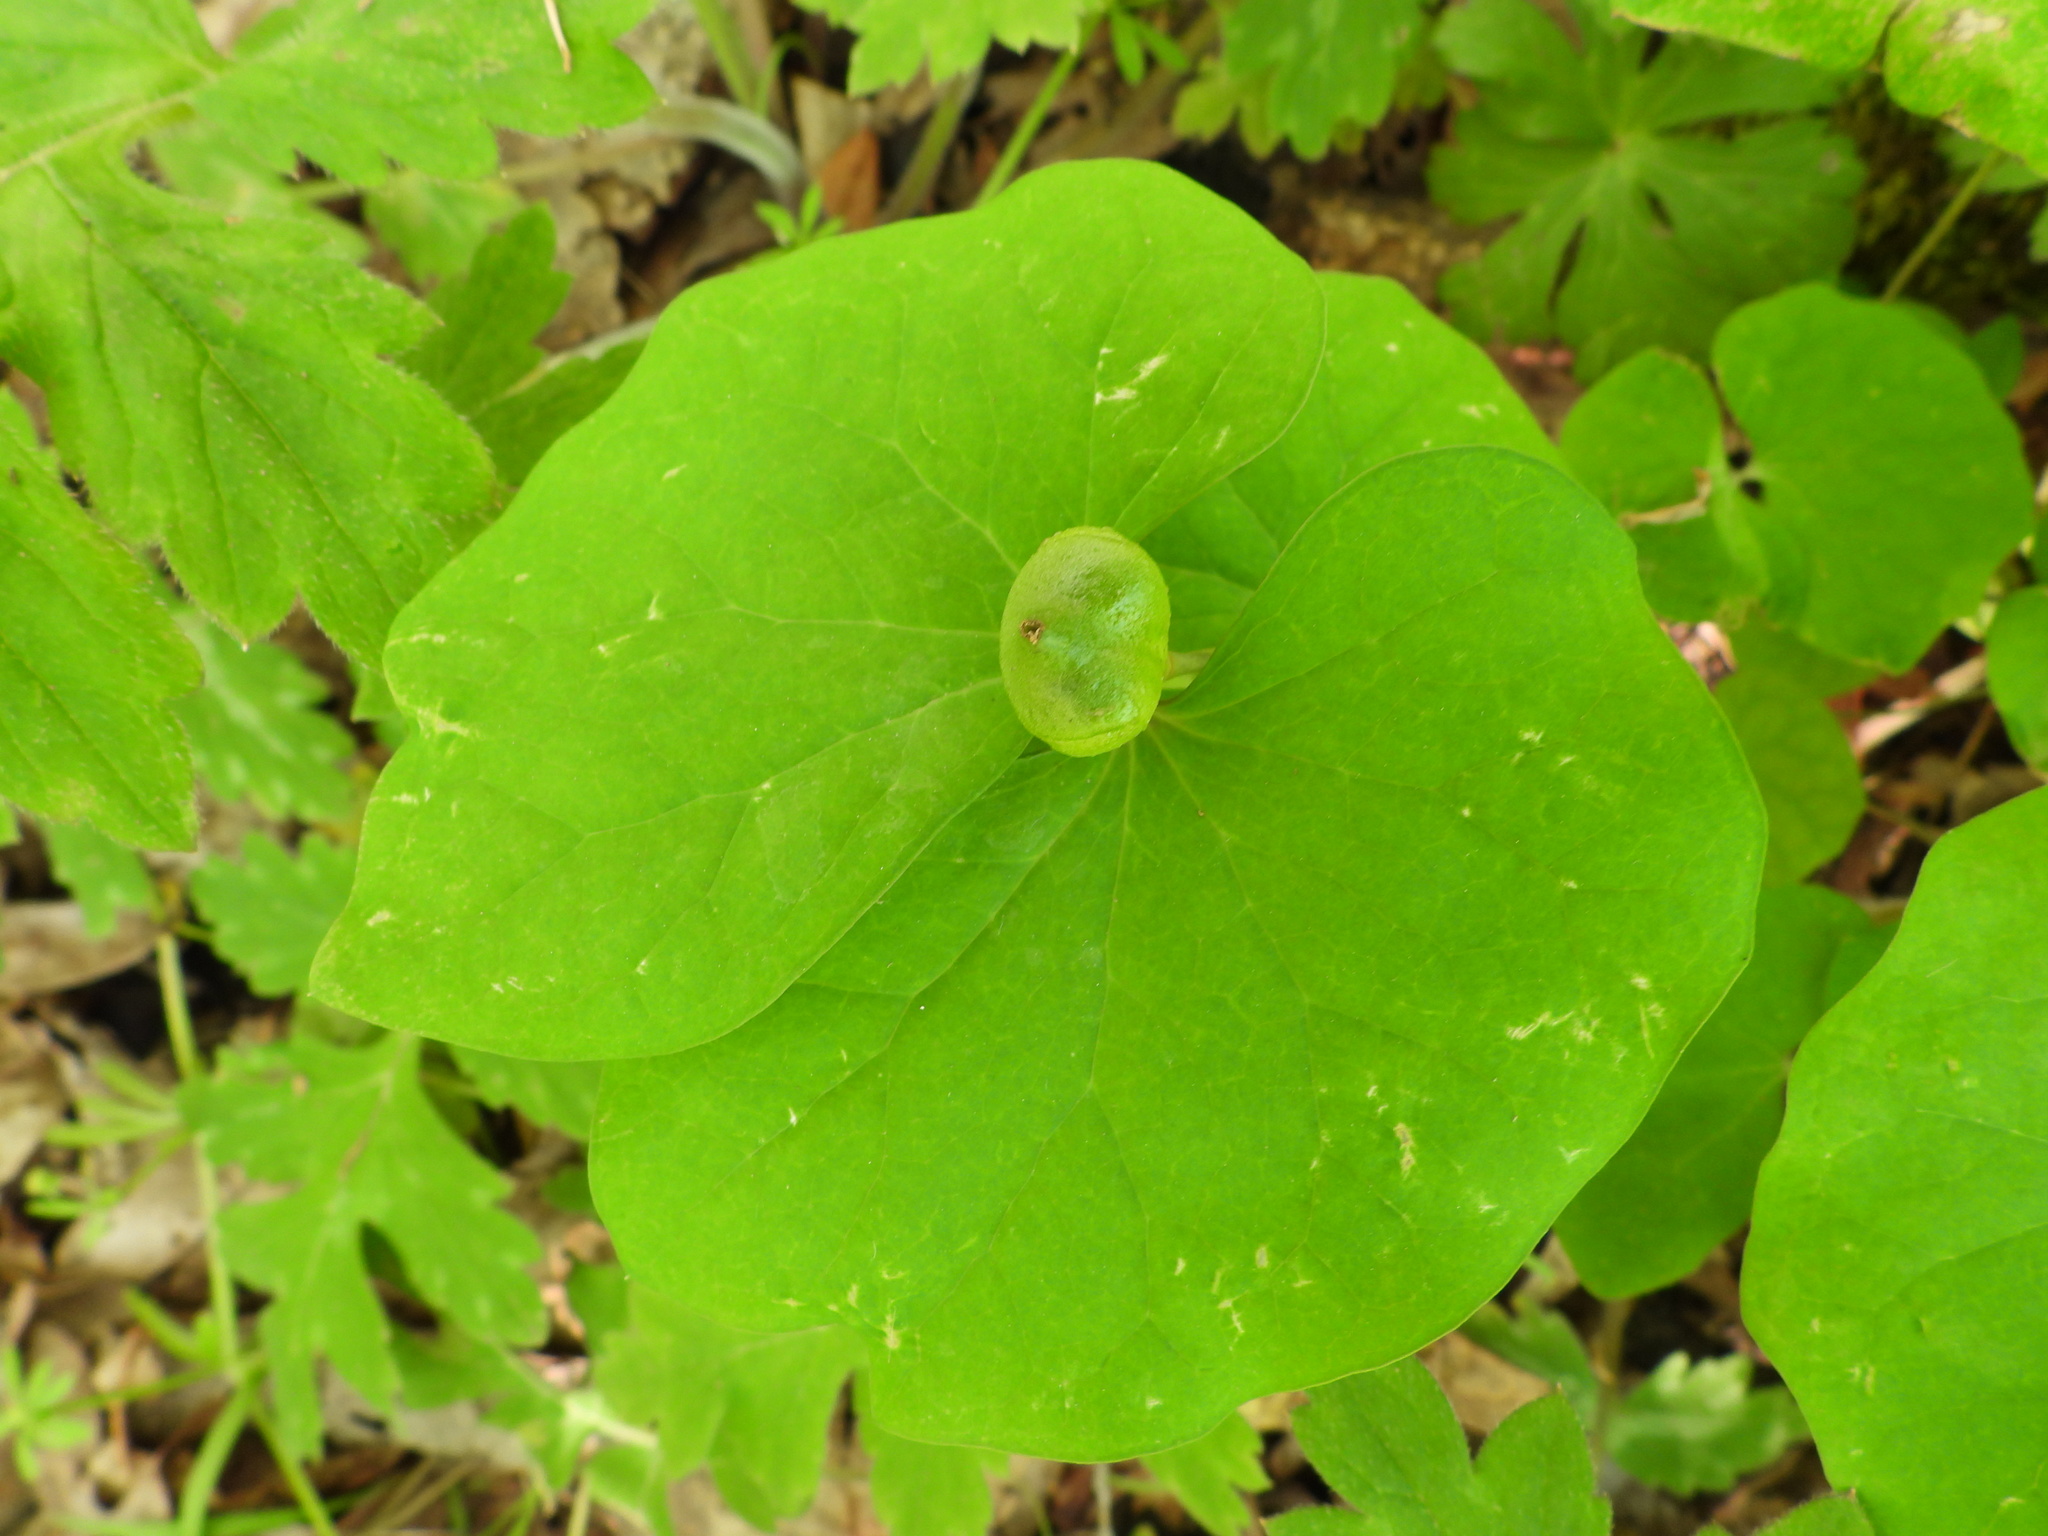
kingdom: Plantae
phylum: Tracheophyta
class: Magnoliopsida
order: Ranunculales
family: Berberidaceae
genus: Jeffersonia
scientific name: Jeffersonia diphylla
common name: Rheumatism-root
